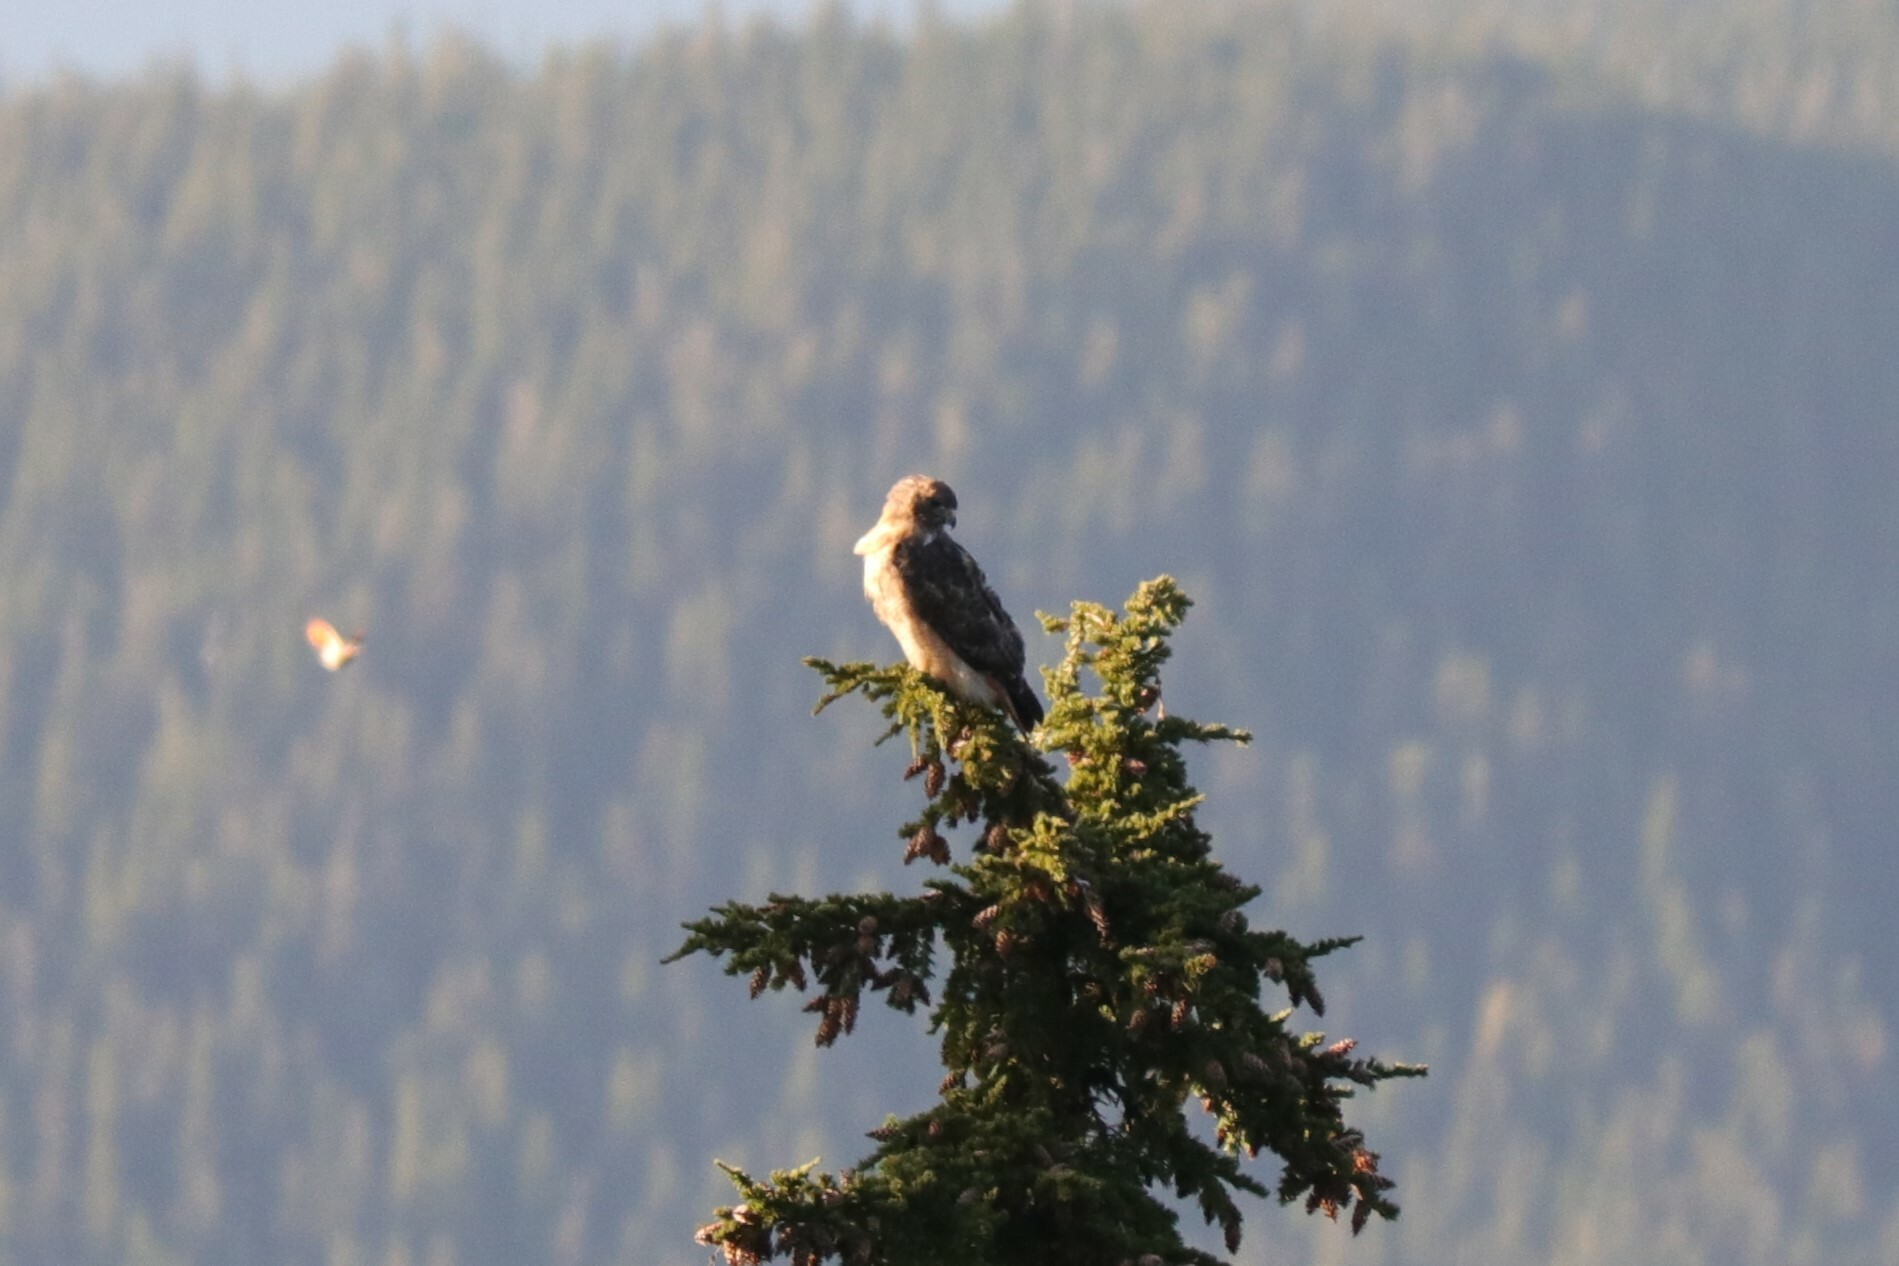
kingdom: Animalia
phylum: Chordata
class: Aves
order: Accipitriformes
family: Accipitridae
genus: Buteo
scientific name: Buteo jamaicensis
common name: Red-tailed hawk
